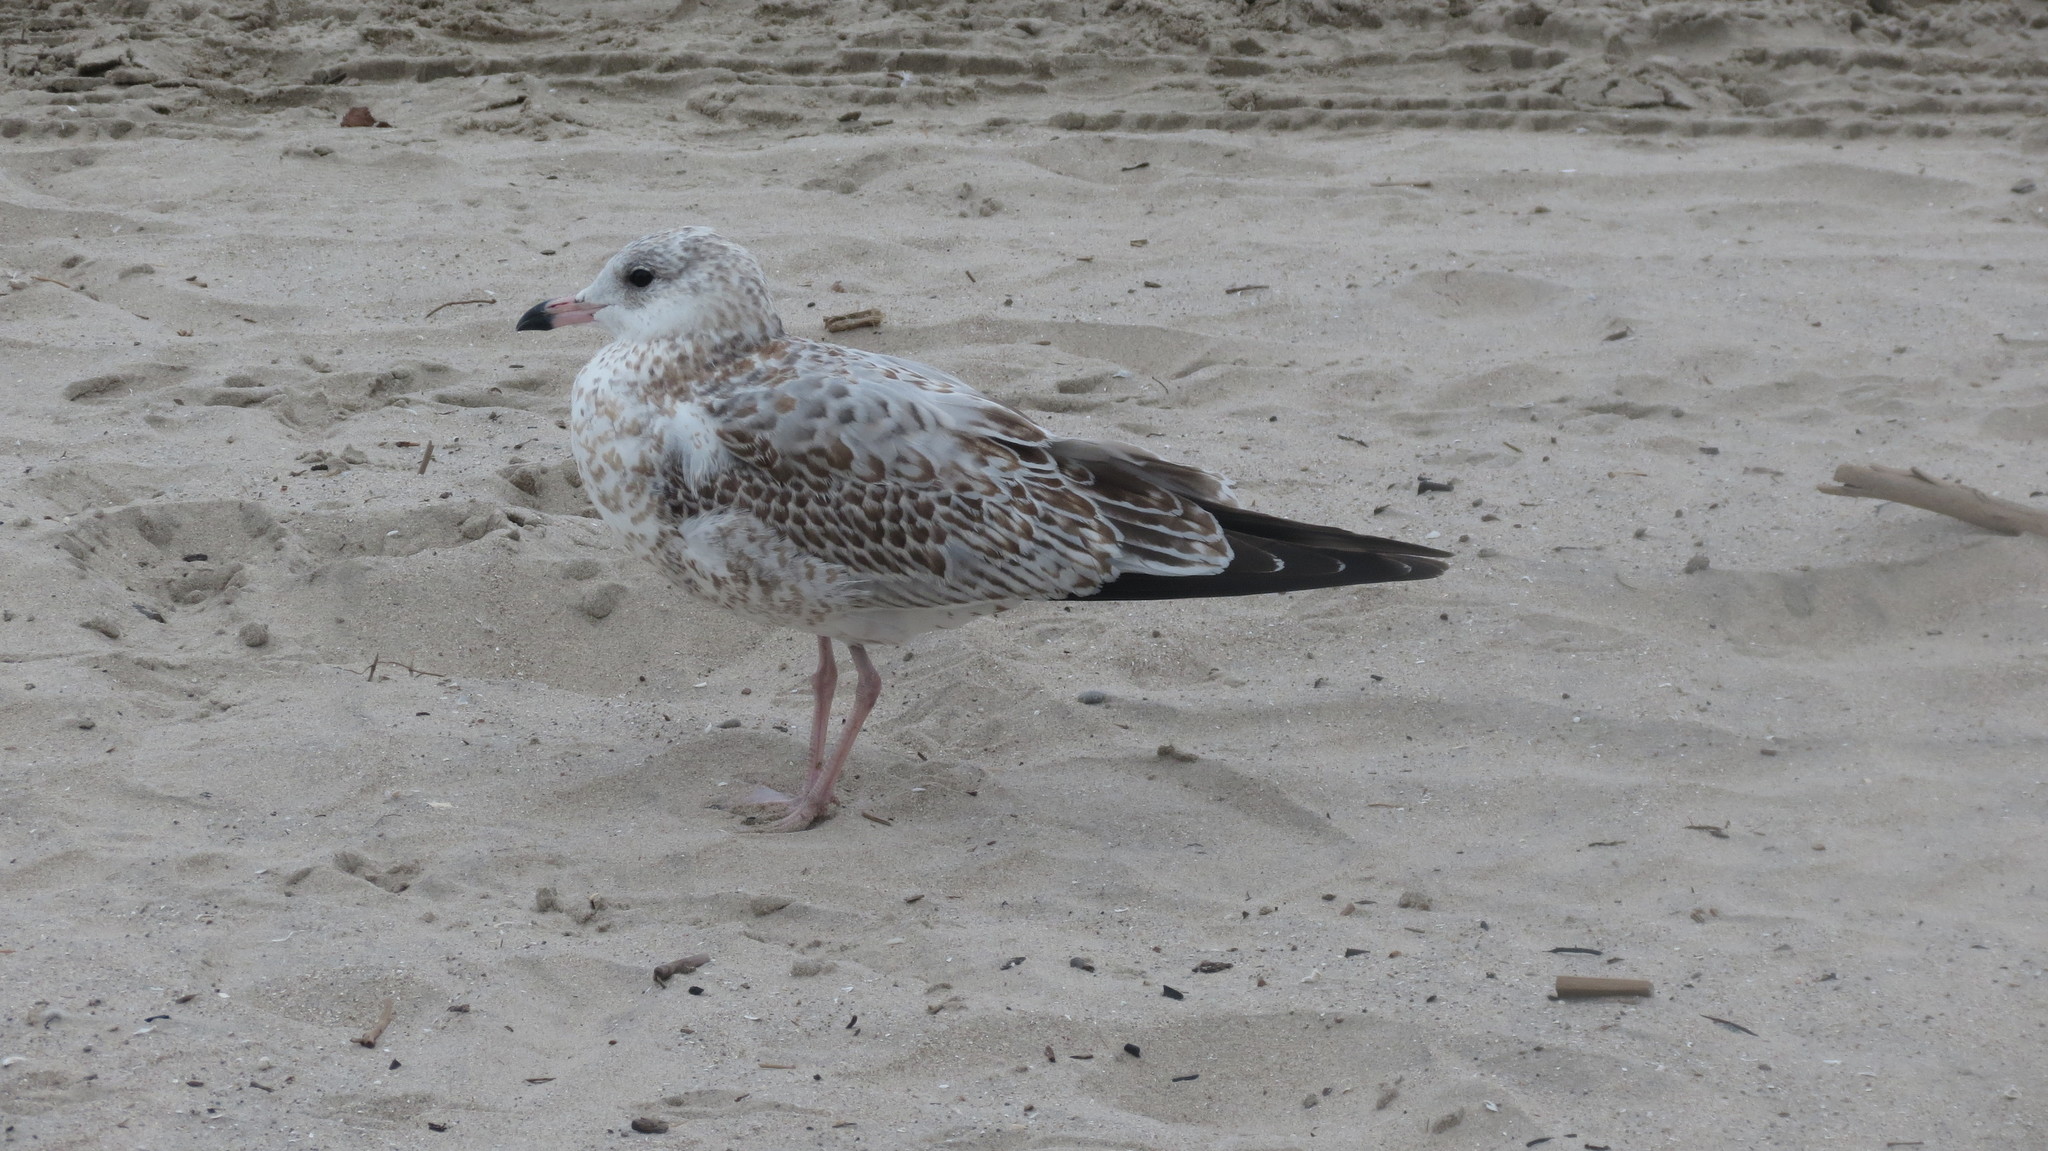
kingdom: Animalia
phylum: Chordata
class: Aves
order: Charadriiformes
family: Laridae
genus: Larus
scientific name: Larus argentatus
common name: Herring gull
